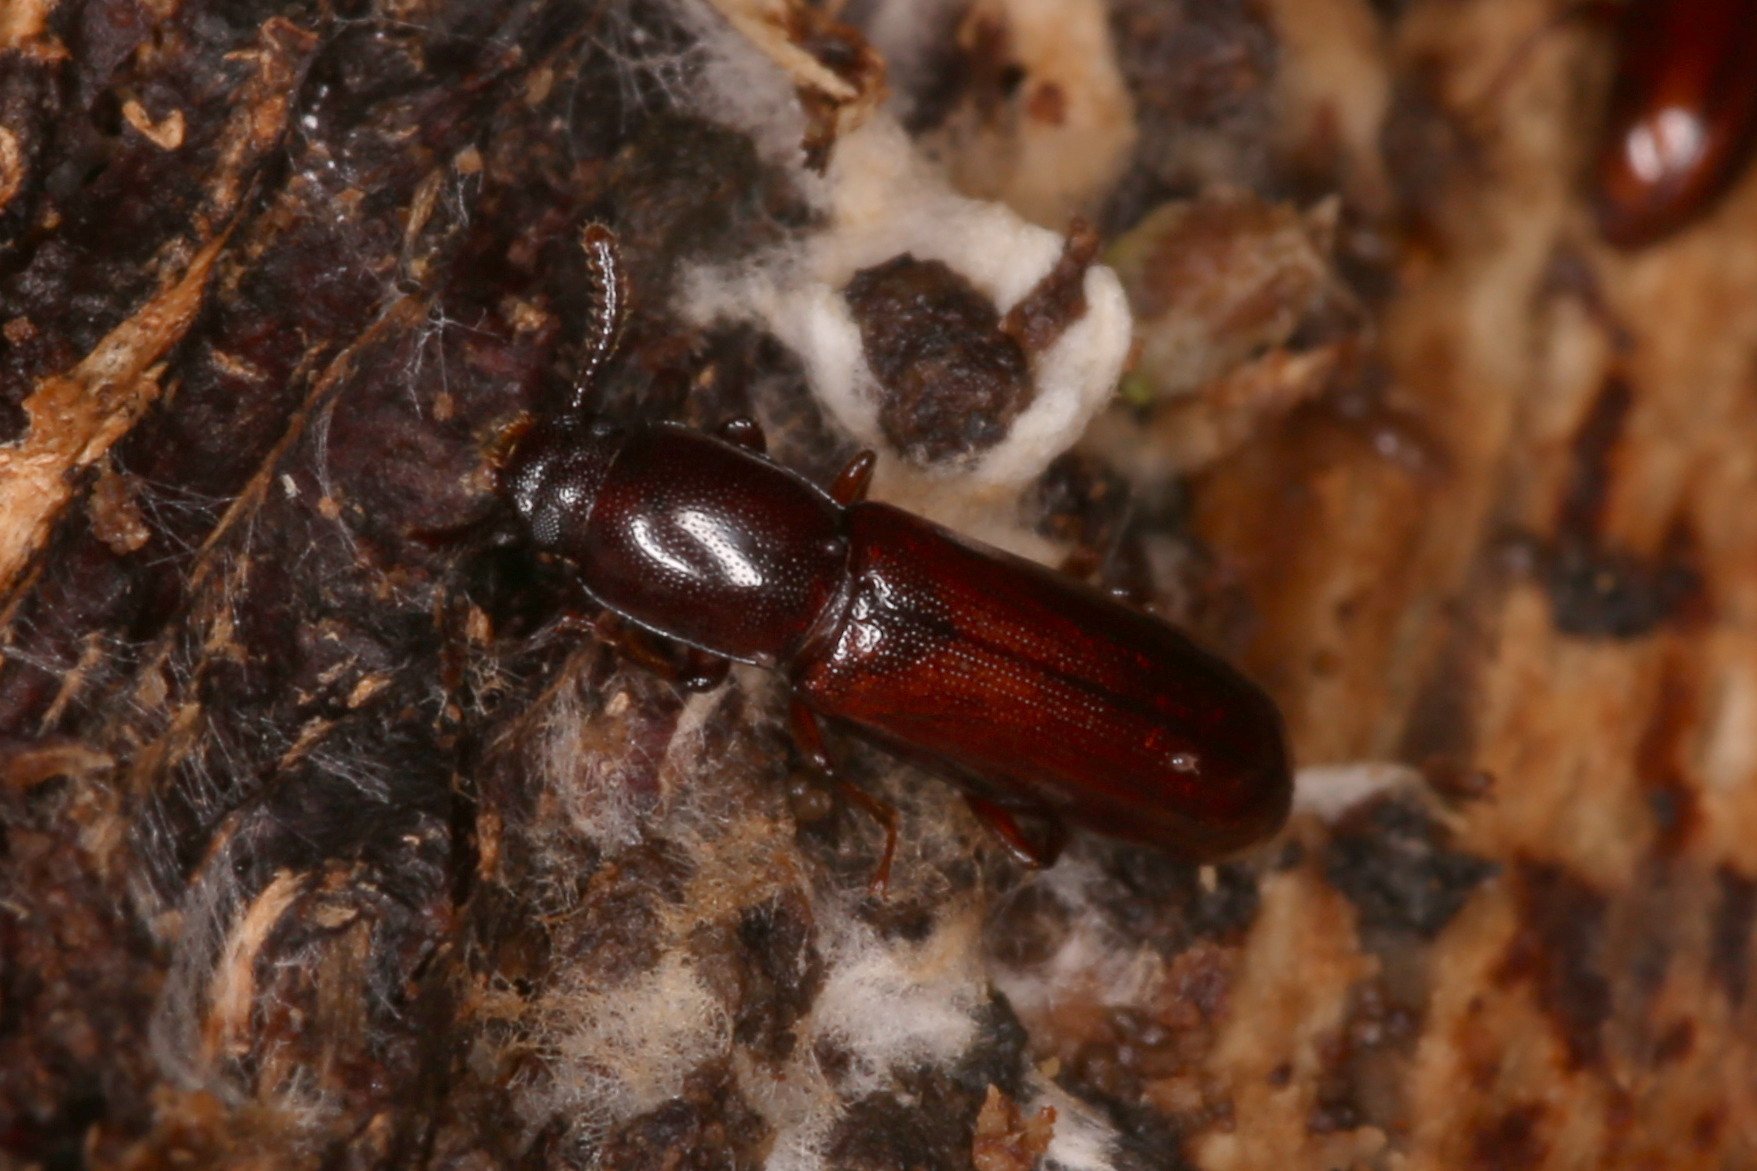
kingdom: Animalia
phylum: Arthropoda
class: Insecta
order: Coleoptera
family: Tenebrionidae
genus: Corticeus
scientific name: Corticeus unicolor
